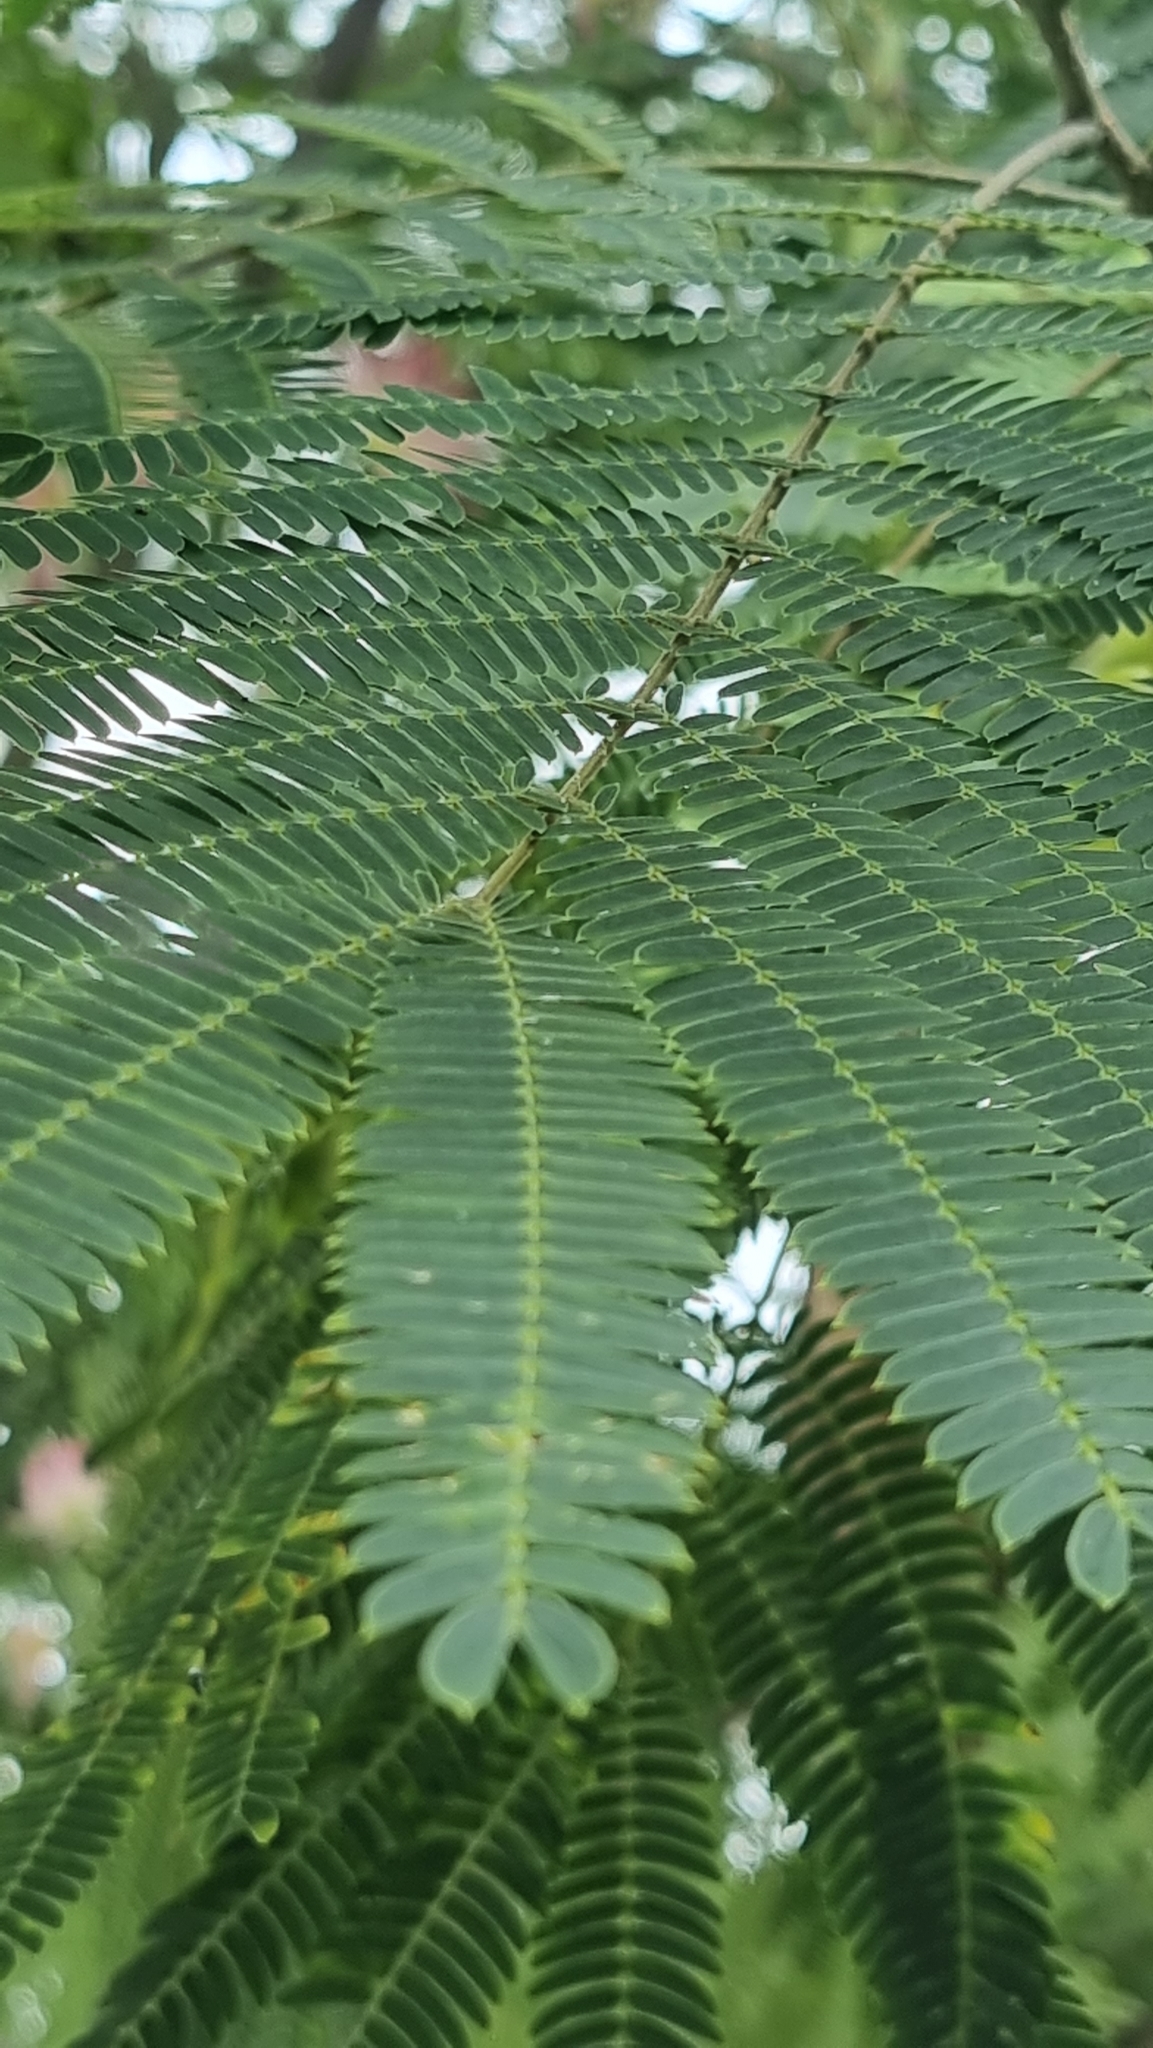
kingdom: Plantae
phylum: Tracheophyta
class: Magnoliopsida
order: Fabales
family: Fabaceae
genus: Albizia
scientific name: Albizia julibrissin
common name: Silktree
